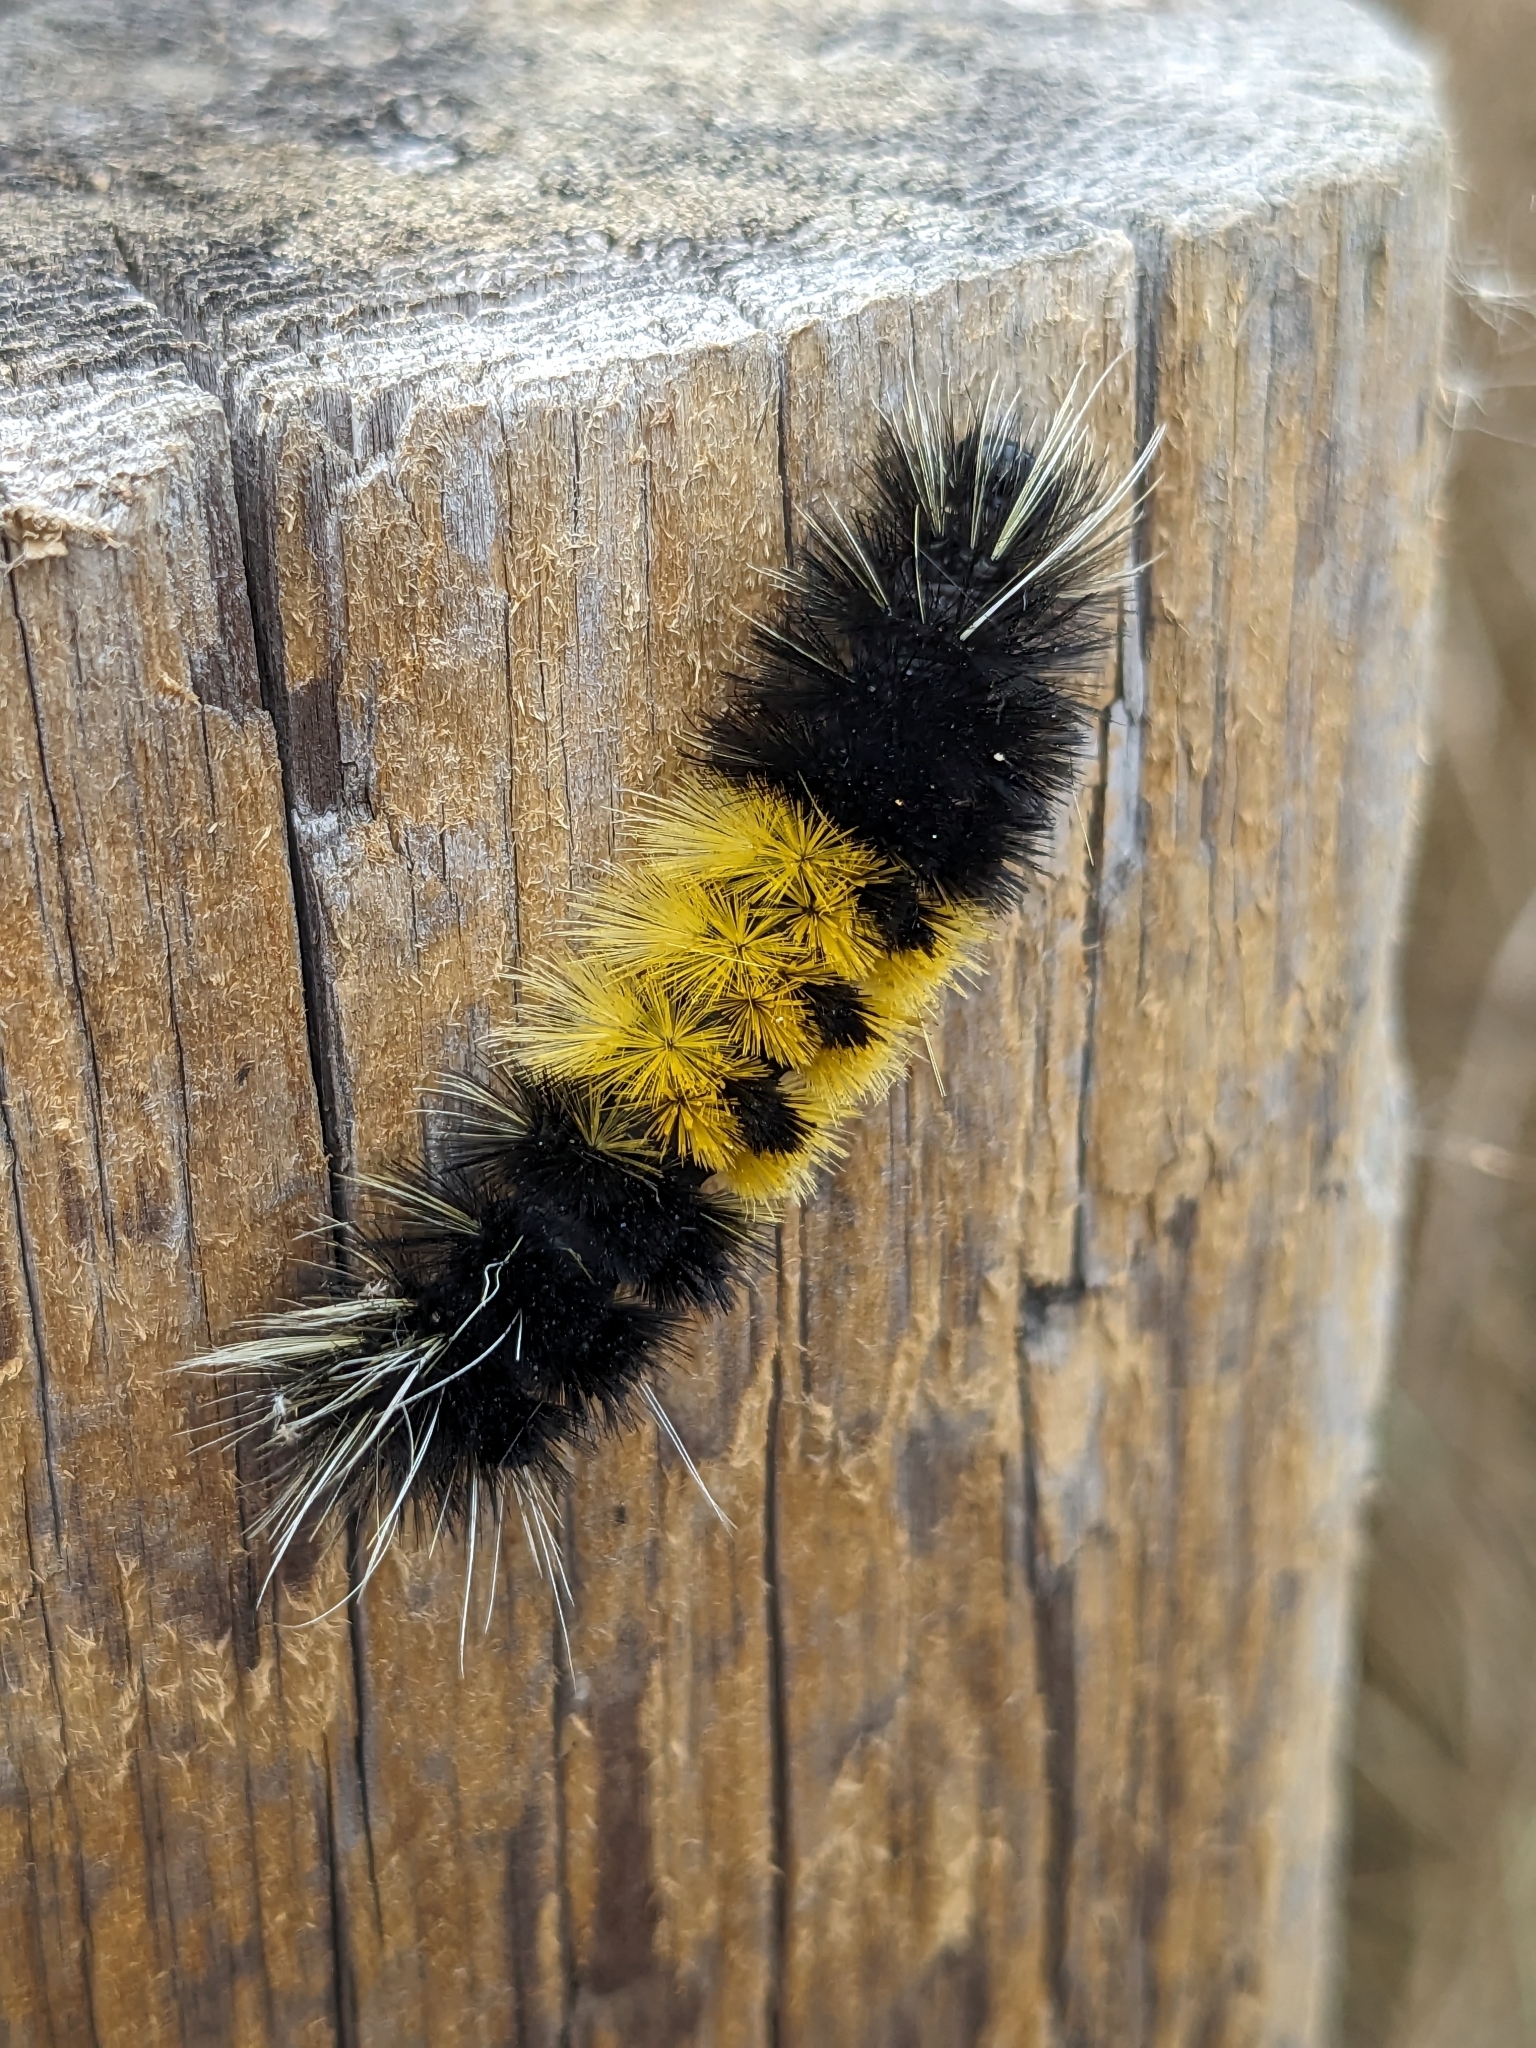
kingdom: Animalia
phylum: Arthropoda
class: Insecta
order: Lepidoptera
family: Erebidae
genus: Lophocampa
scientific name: Lophocampa maculata
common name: Spotted tussock moth
